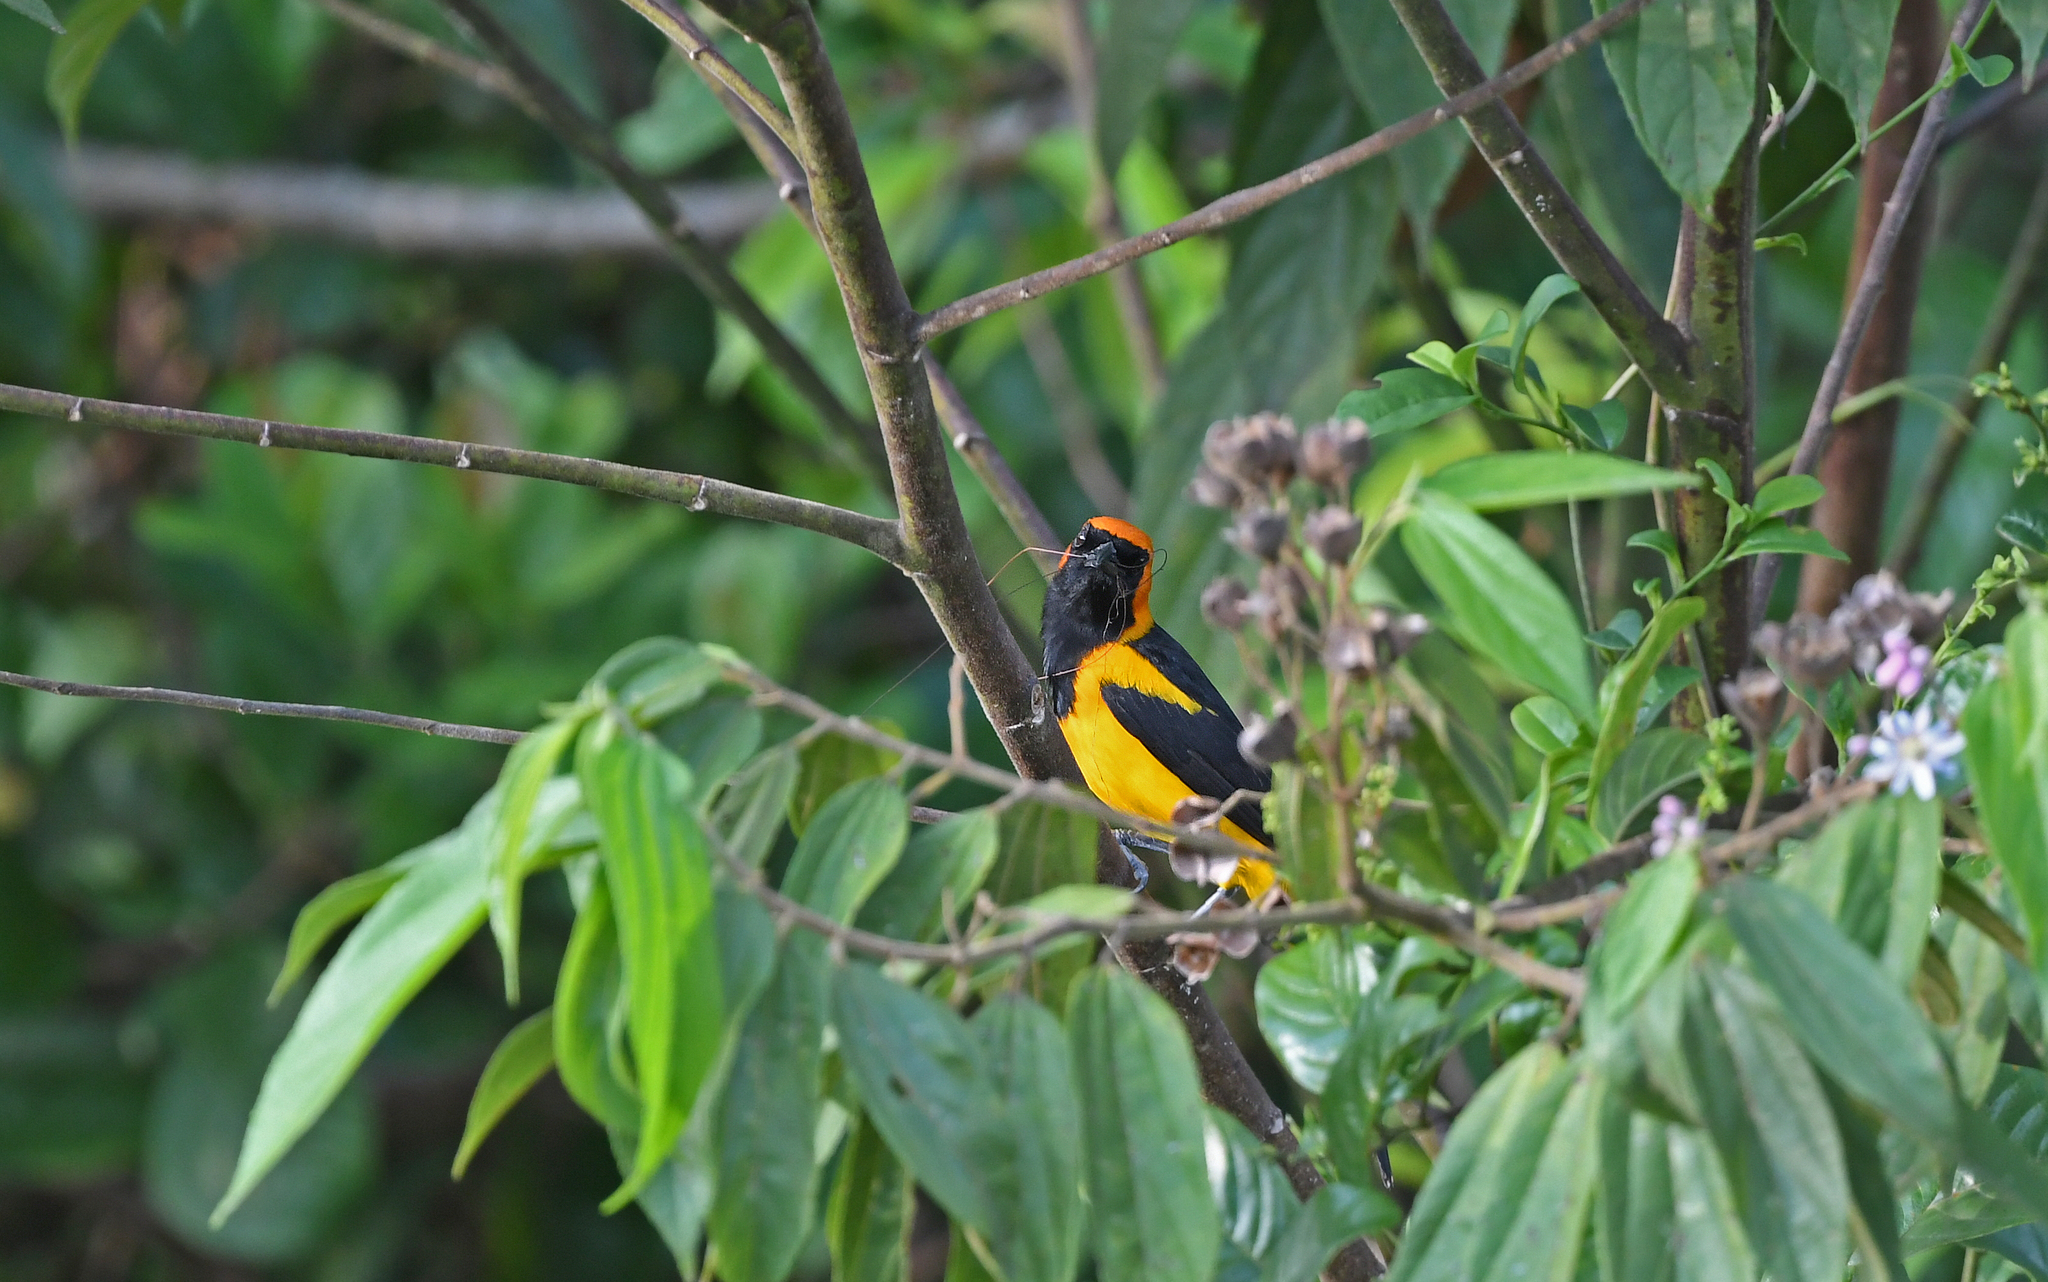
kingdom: Animalia
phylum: Chordata
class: Aves
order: Passeriformes
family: Icteridae
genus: Icterus
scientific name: Icterus auricapillus
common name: Orange-crowned oriole
